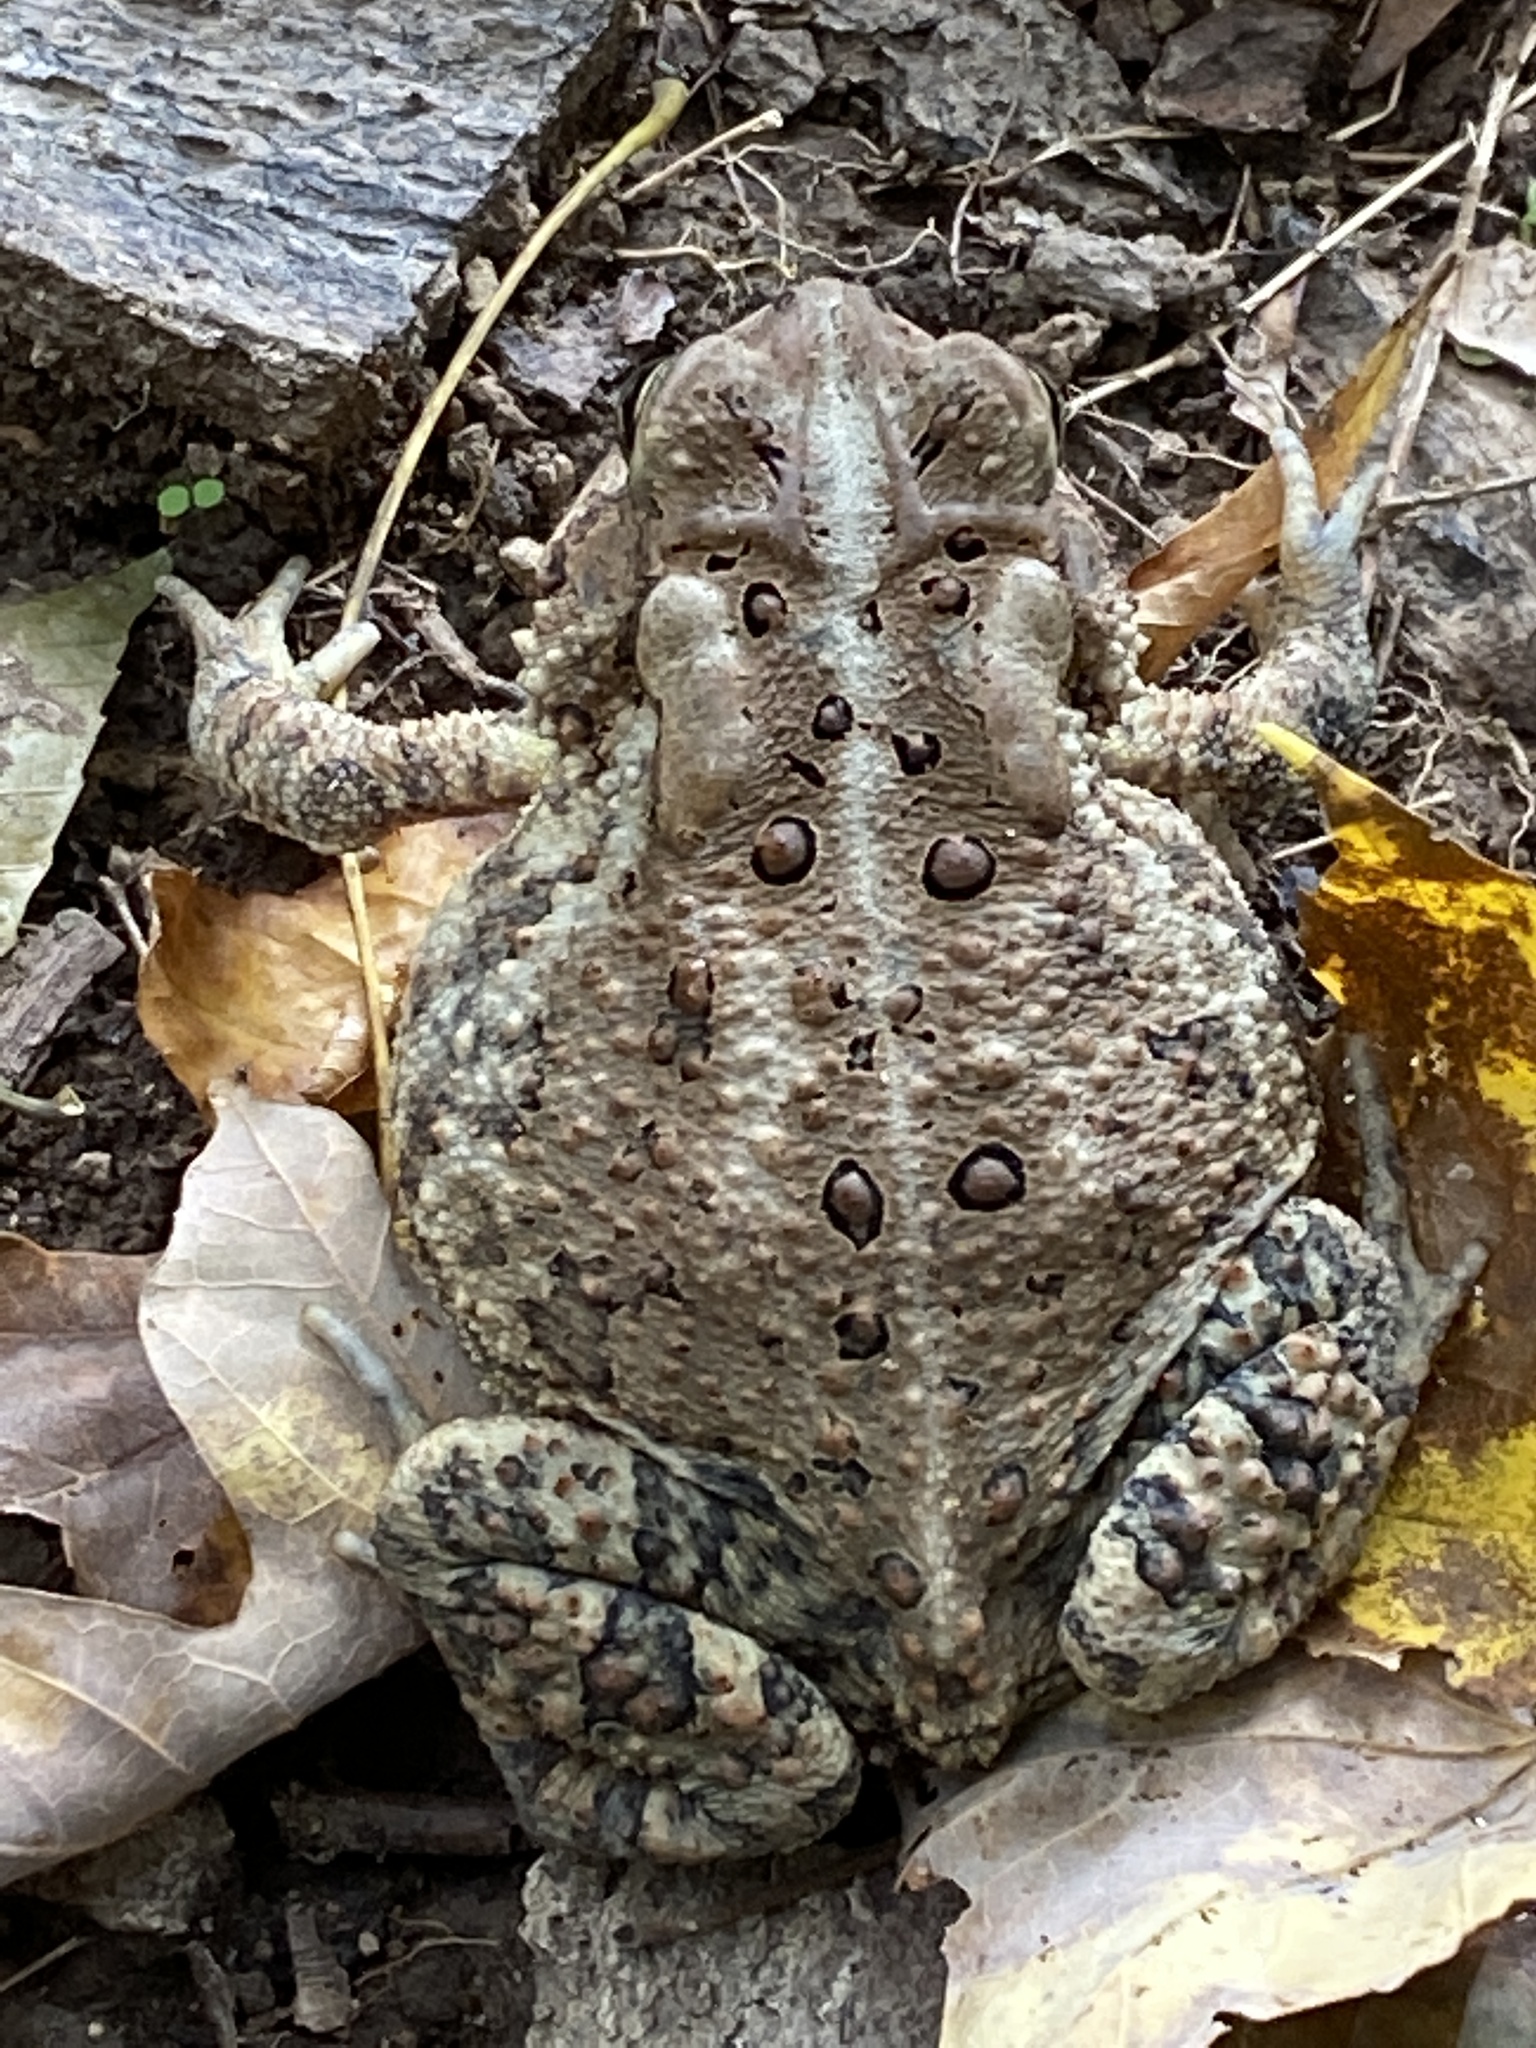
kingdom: Animalia
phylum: Chordata
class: Amphibia
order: Anura
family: Bufonidae
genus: Anaxyrus
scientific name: Anaxyrus americanus
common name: American toad
